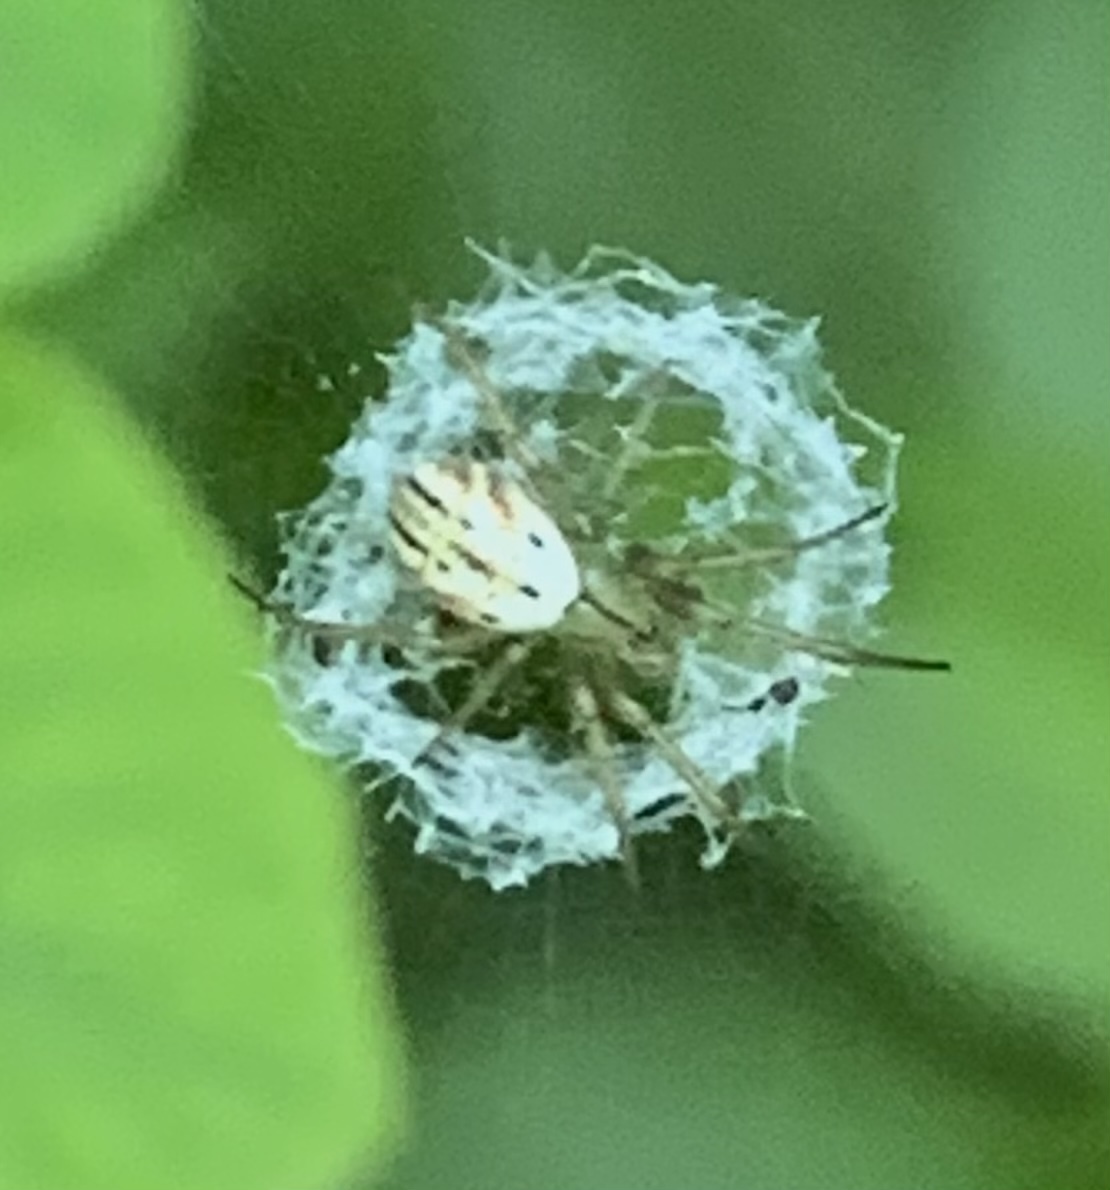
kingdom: Animalia
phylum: Arthropoda
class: Arachnida
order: Araneae
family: Araneidae
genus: Mangora
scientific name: Mangora gibberosa
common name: Lined orbweaver
